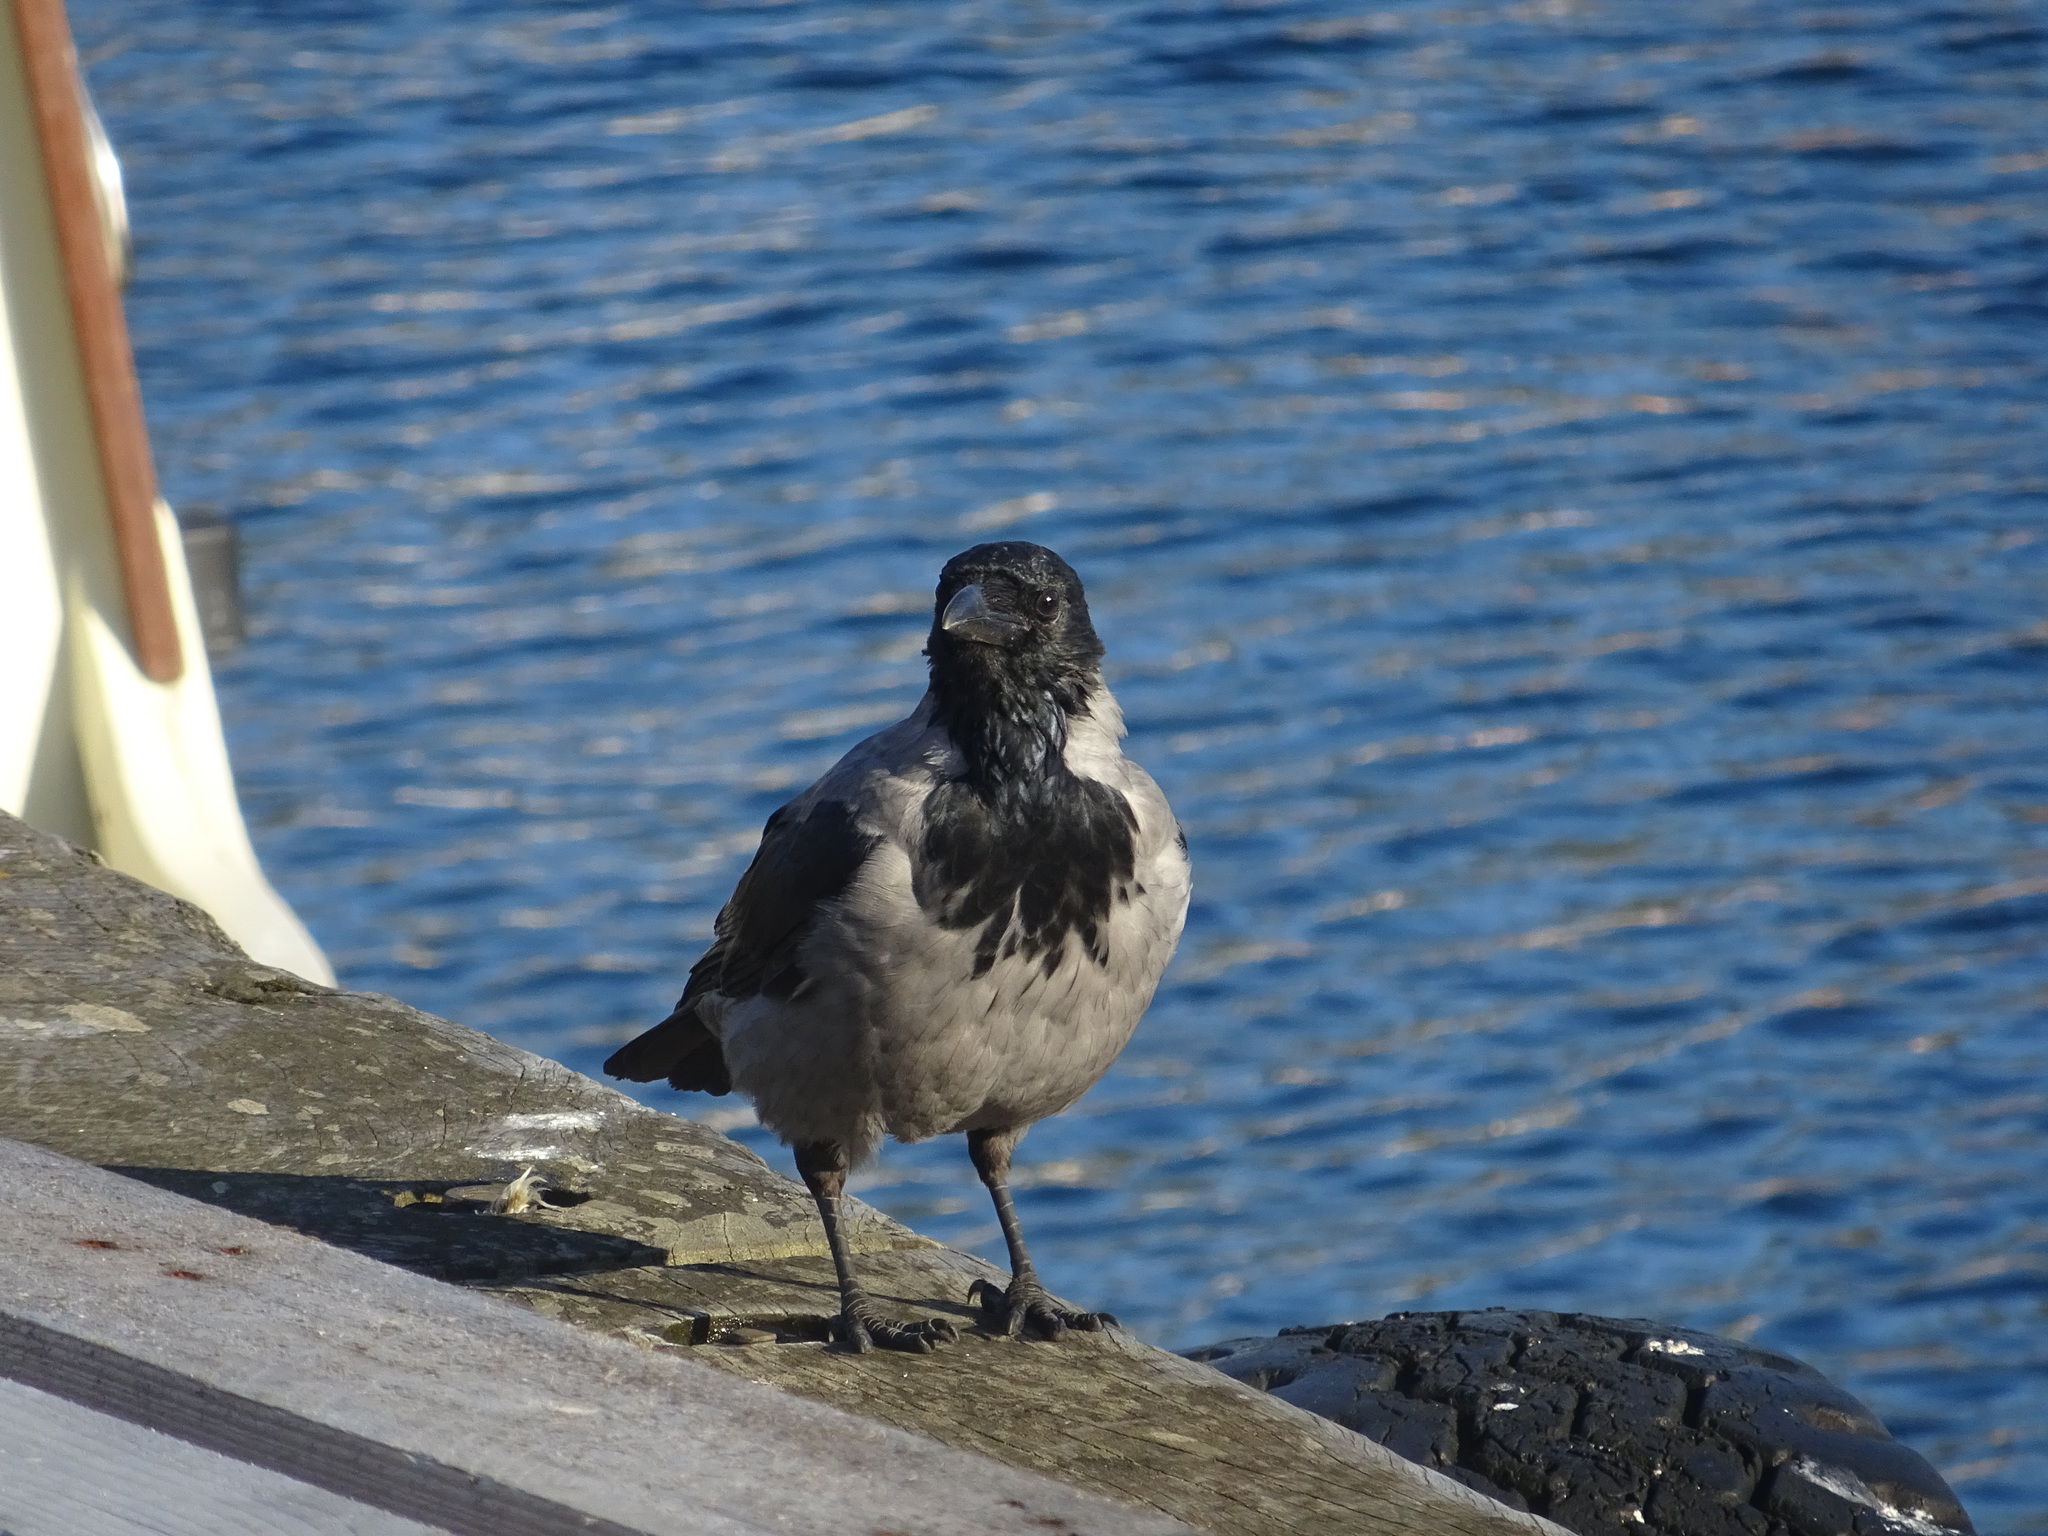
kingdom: Animalia
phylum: Chordata
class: Aves
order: Passeriformes
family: Corvidae
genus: Corvus
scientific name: Corvus cornix
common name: Hooded crow
